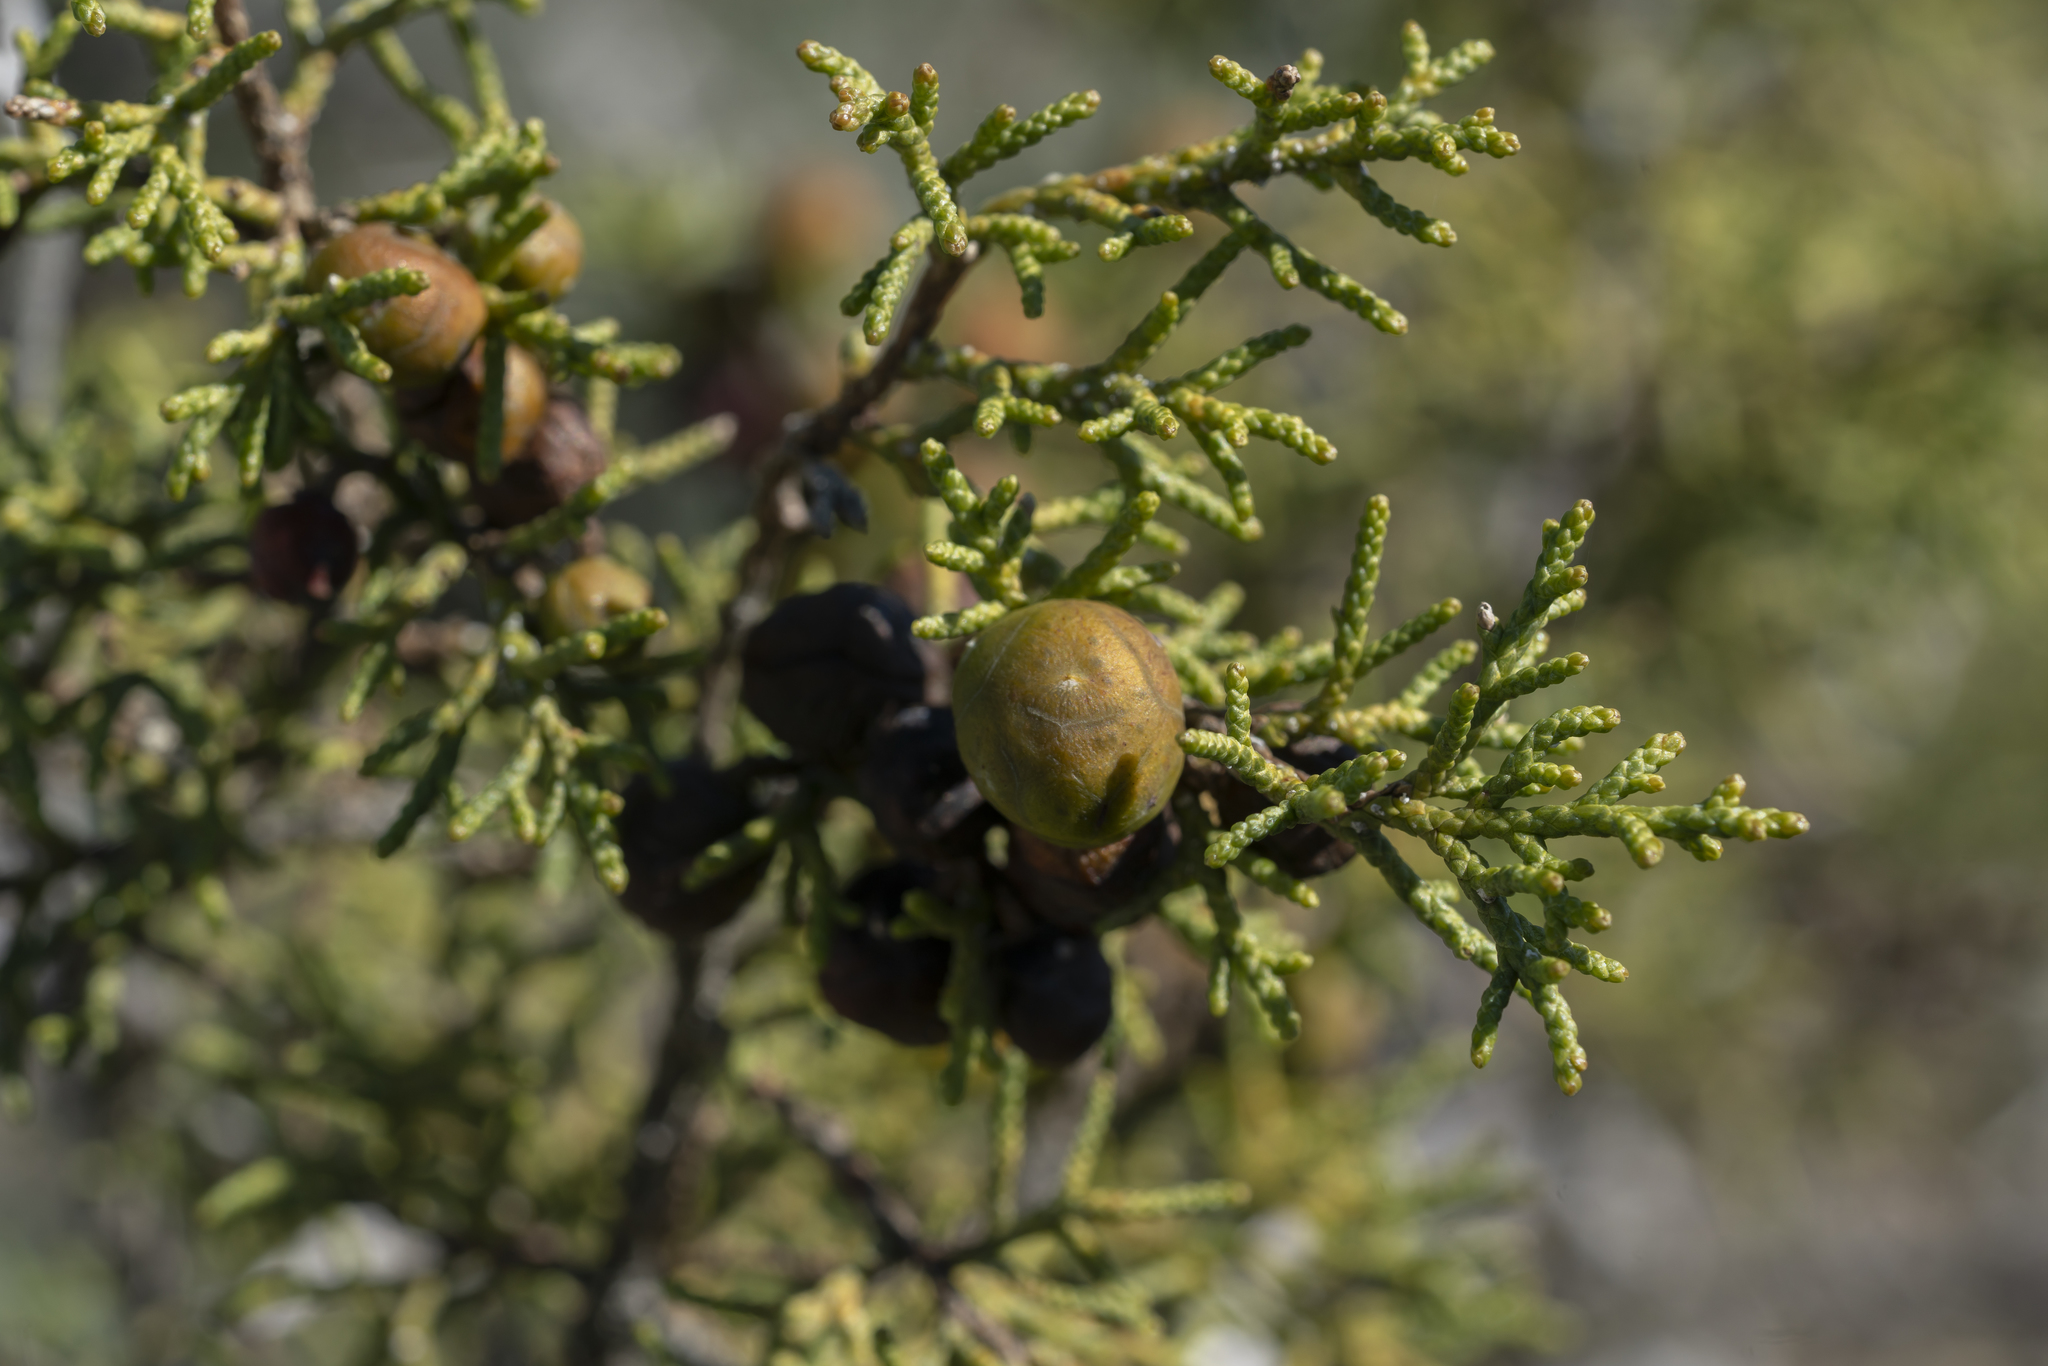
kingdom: Plantae
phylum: Tracheophyta
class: Pinopsida
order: Pinales
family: Cupressaceae
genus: Juniperus
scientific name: Juniperus phoenicea
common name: Phoenician juniper
